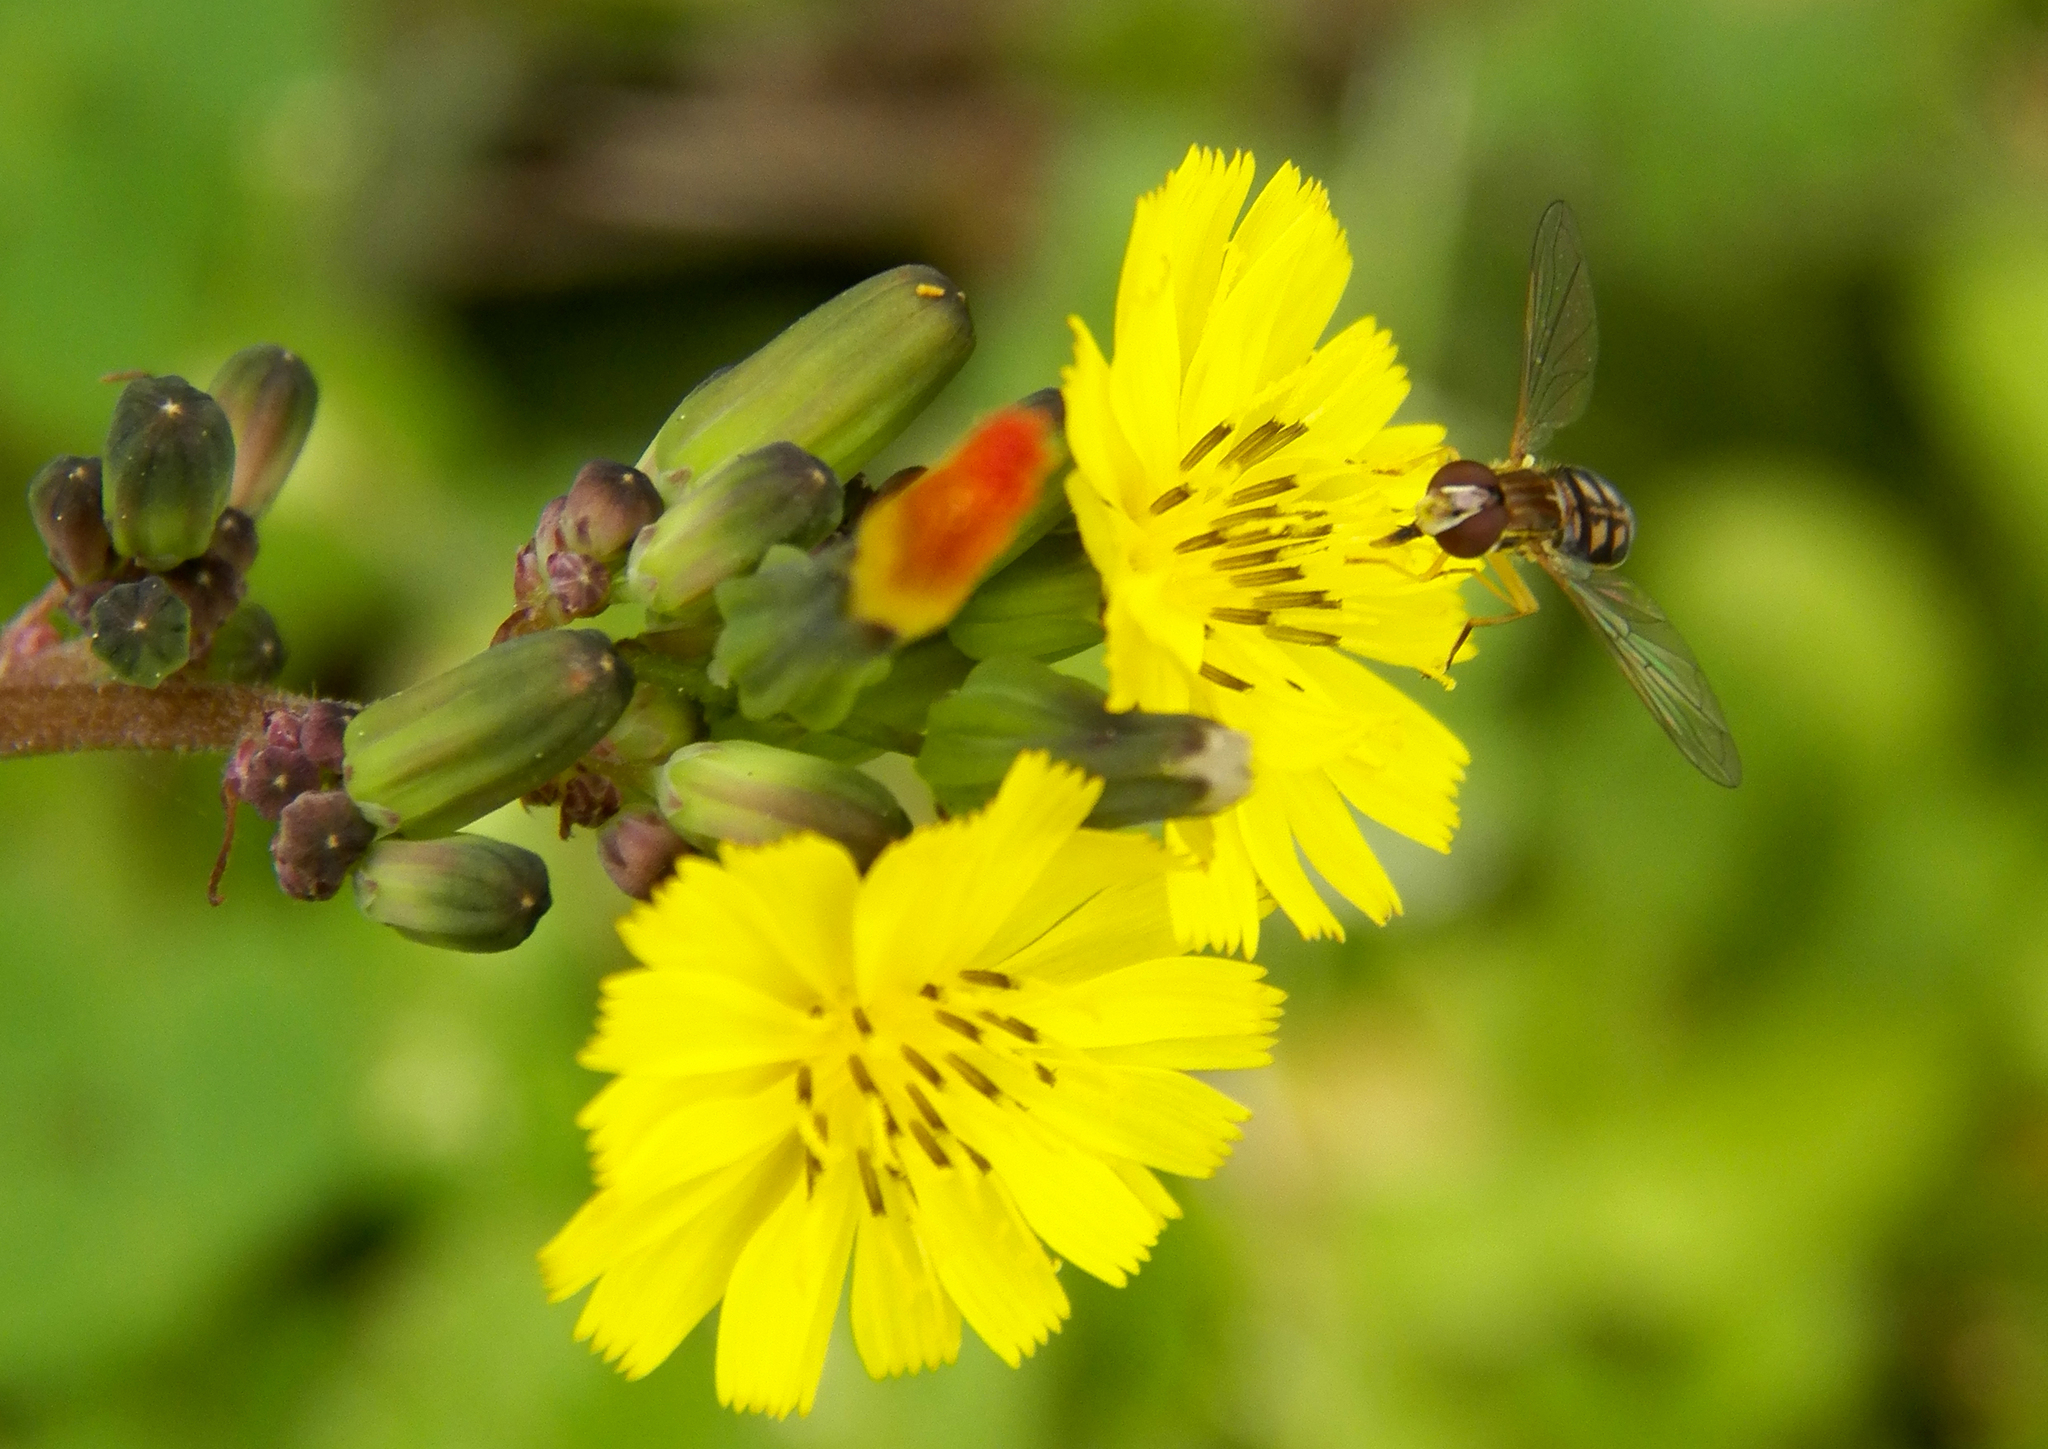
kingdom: Animalia
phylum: Arthropoda
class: Insecta
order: Diptera
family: Syrphidae
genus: Toxomerus
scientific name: Toxomerus marginatus
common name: Syrphid fly
